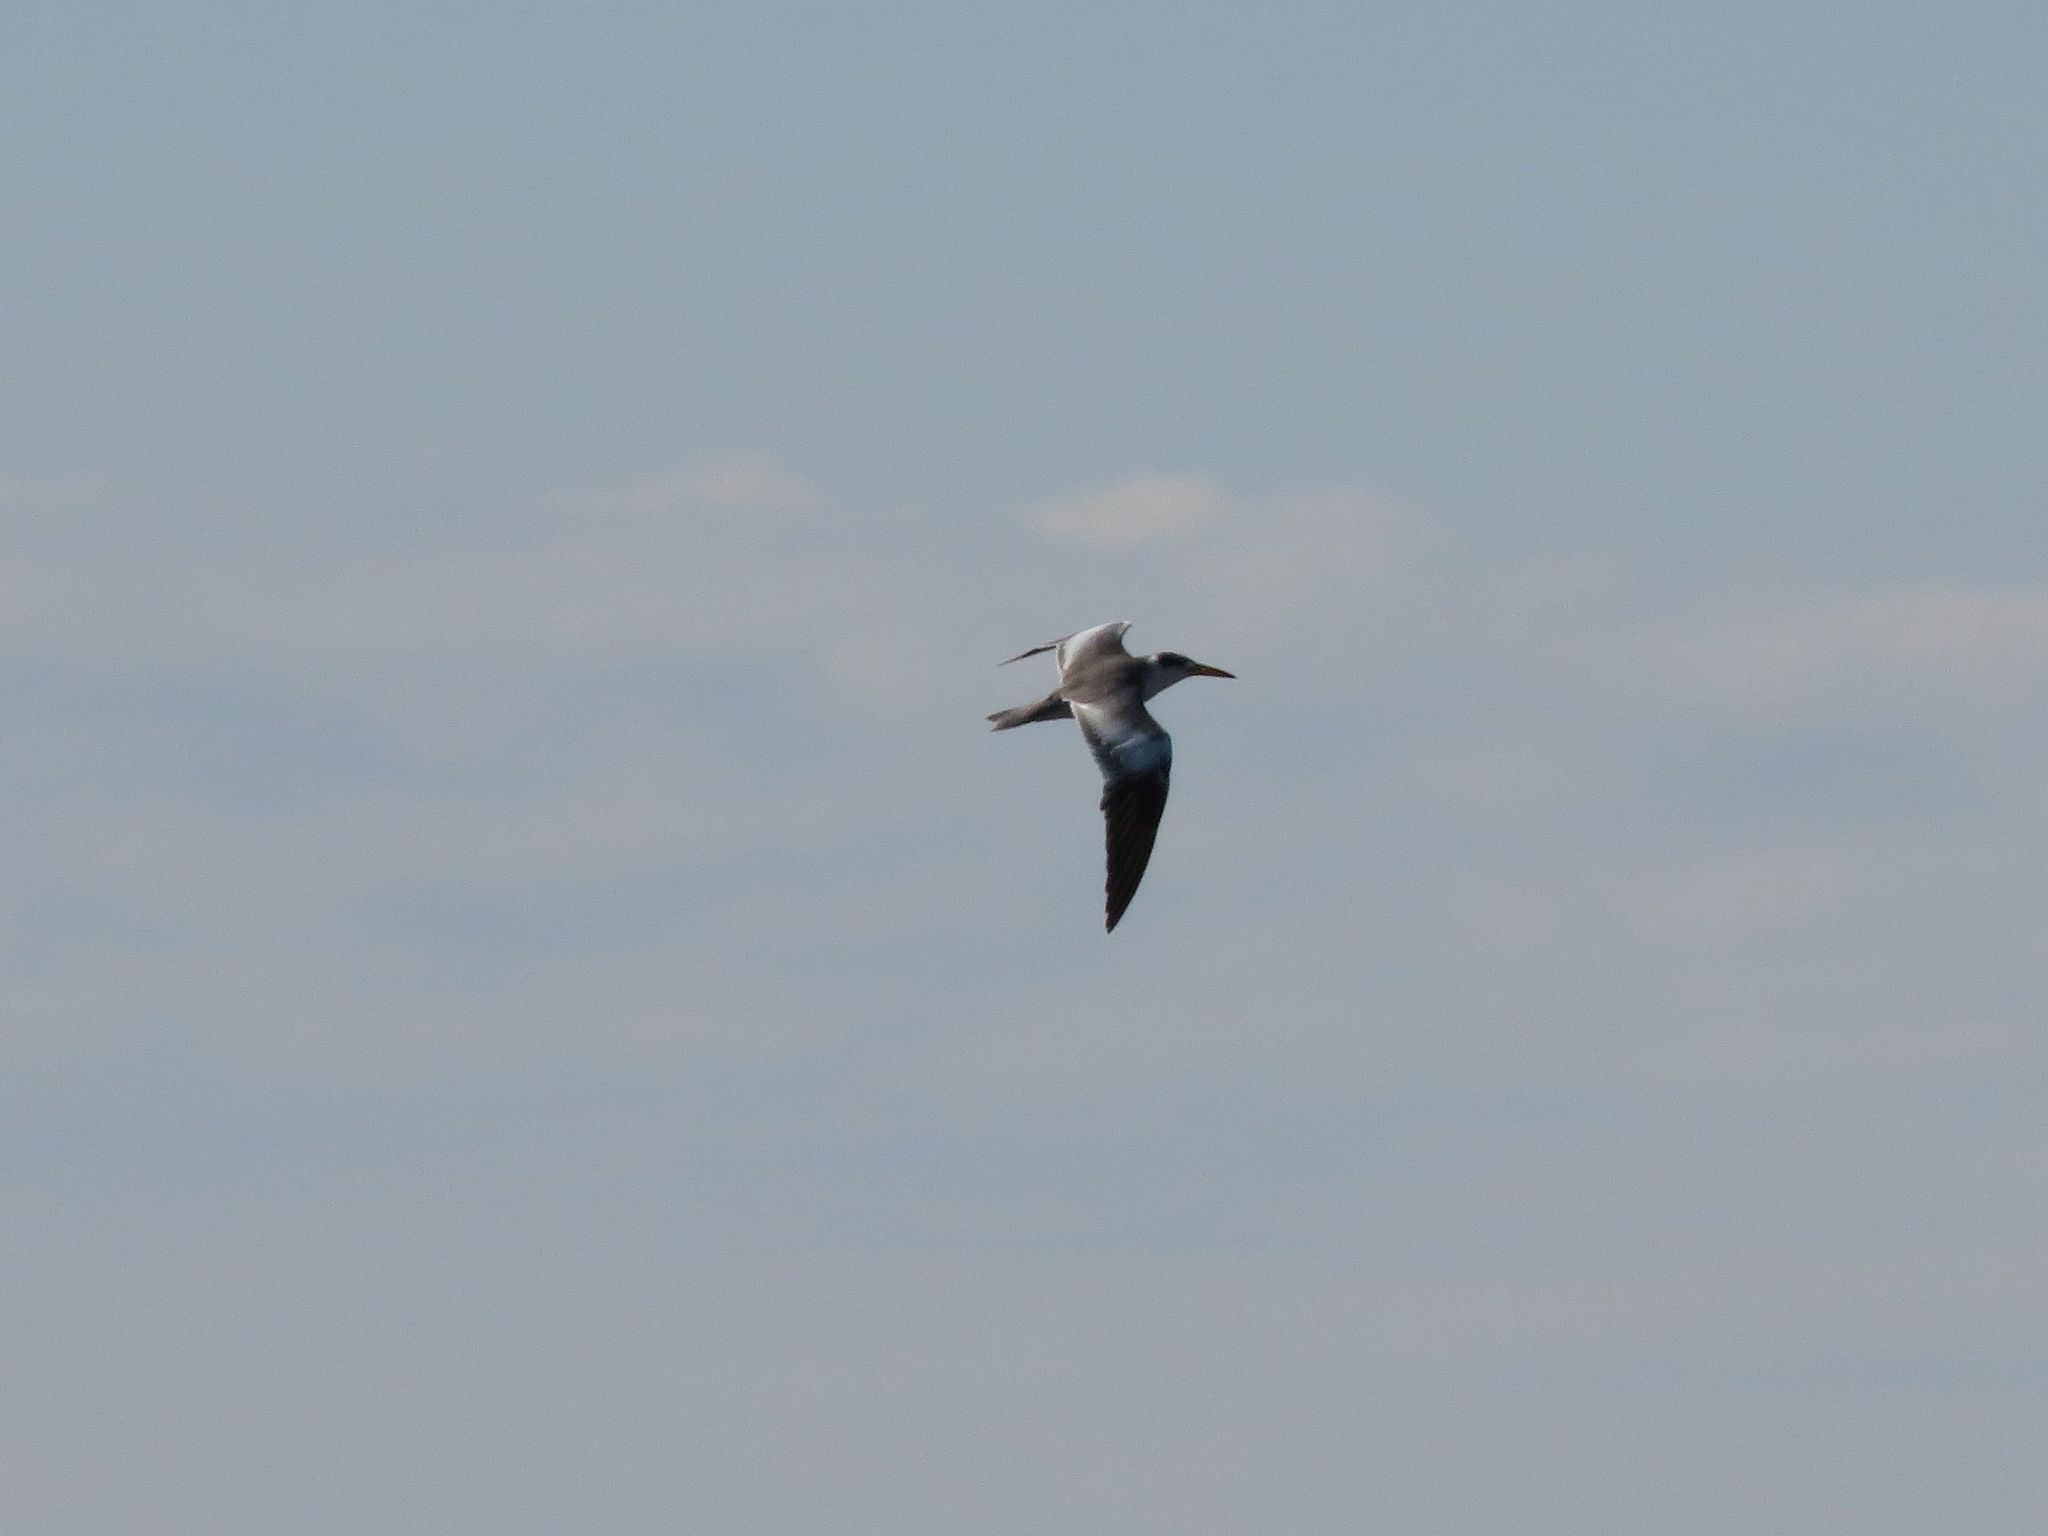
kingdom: Animalia
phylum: Chordata
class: Aves
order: Charadriiformes
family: Laridae
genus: Phaetusa
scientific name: Phaetusa simplex
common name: Large-billed tern
